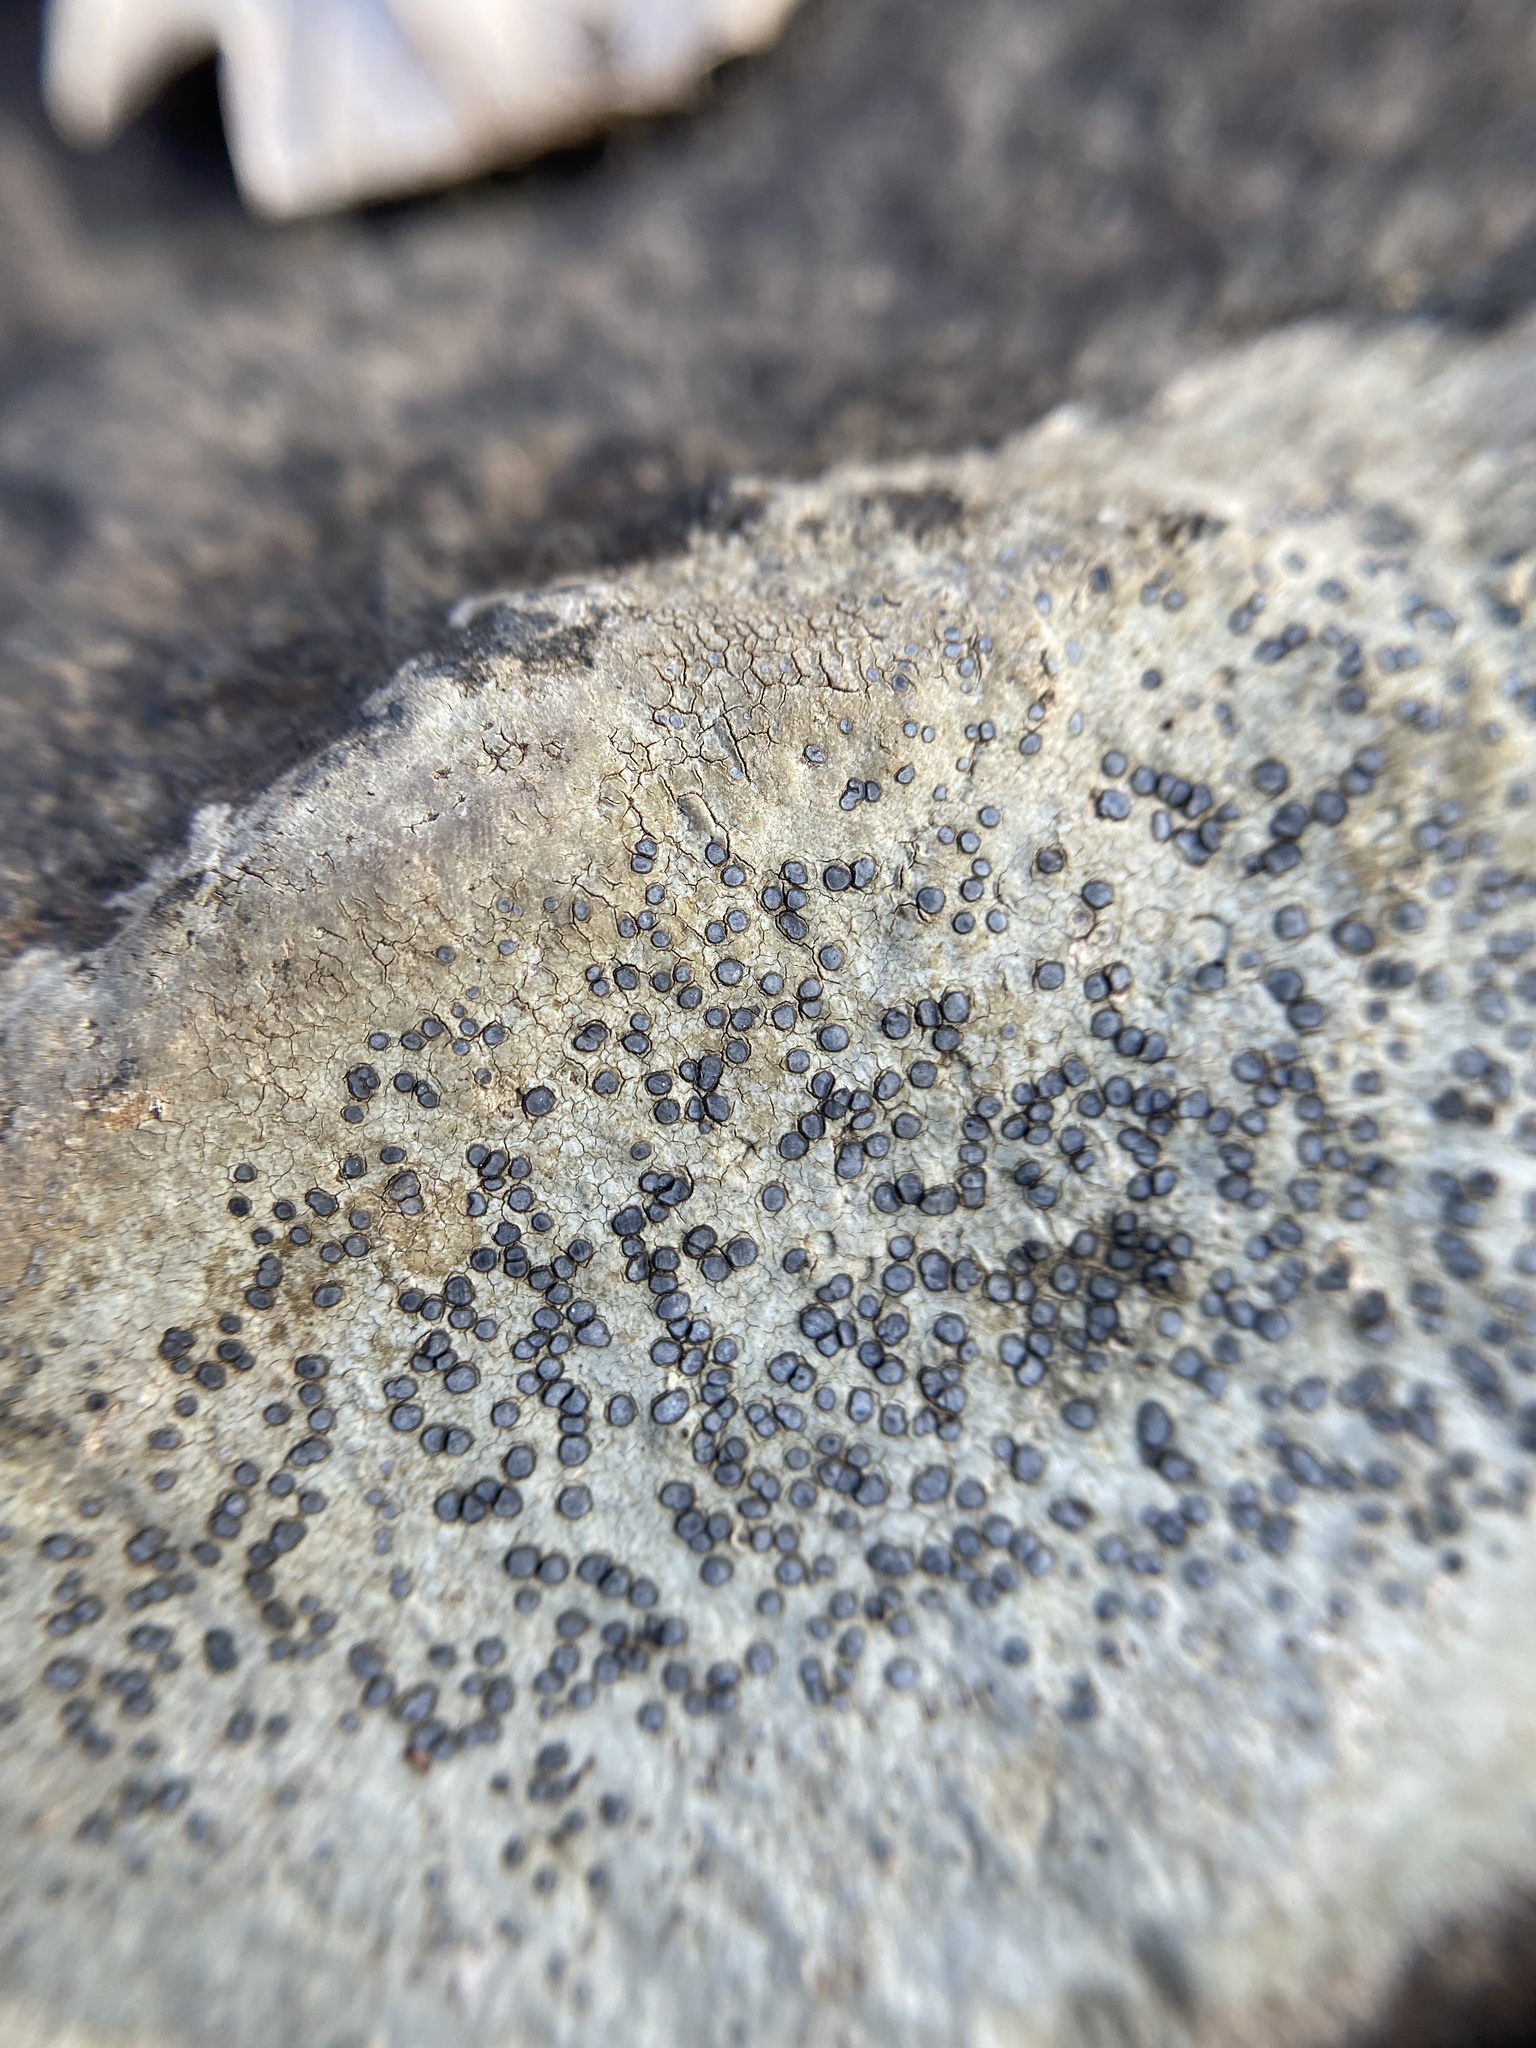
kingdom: Fungi
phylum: Ascomycota
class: Lecanoromycetes
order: Lecideales
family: Lecideaceae
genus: Porpidia
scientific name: Porpidia albocaerulescens
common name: Smokey-eyed boulder lichen
